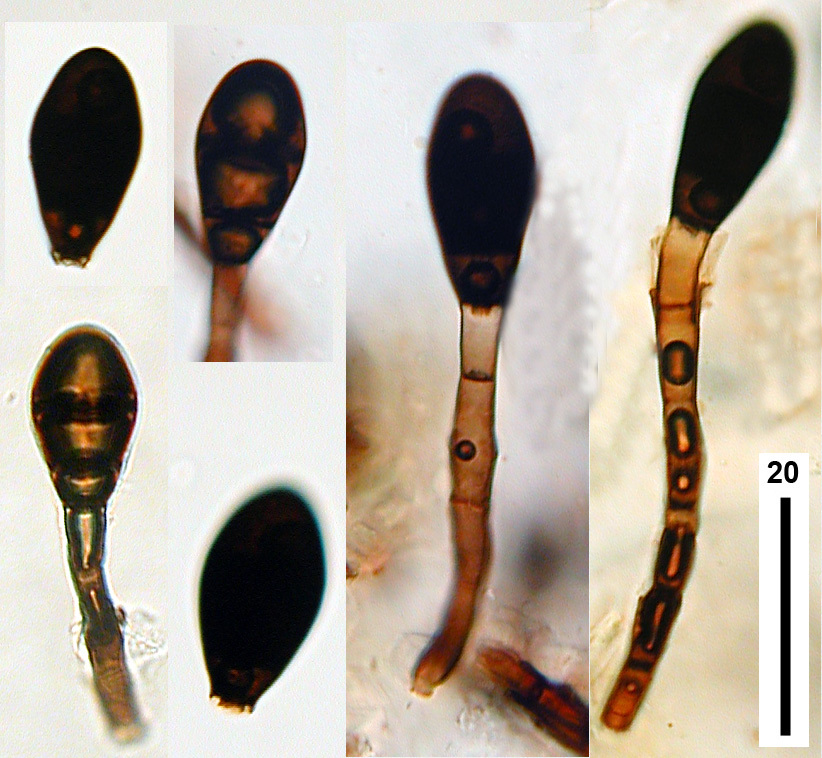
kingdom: Fungi
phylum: Ascomycota
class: Sordariomycetes
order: Sordariales
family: Helminthosphaeriaceae
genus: Endophragmiella
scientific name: Endophragmiella biseptata
